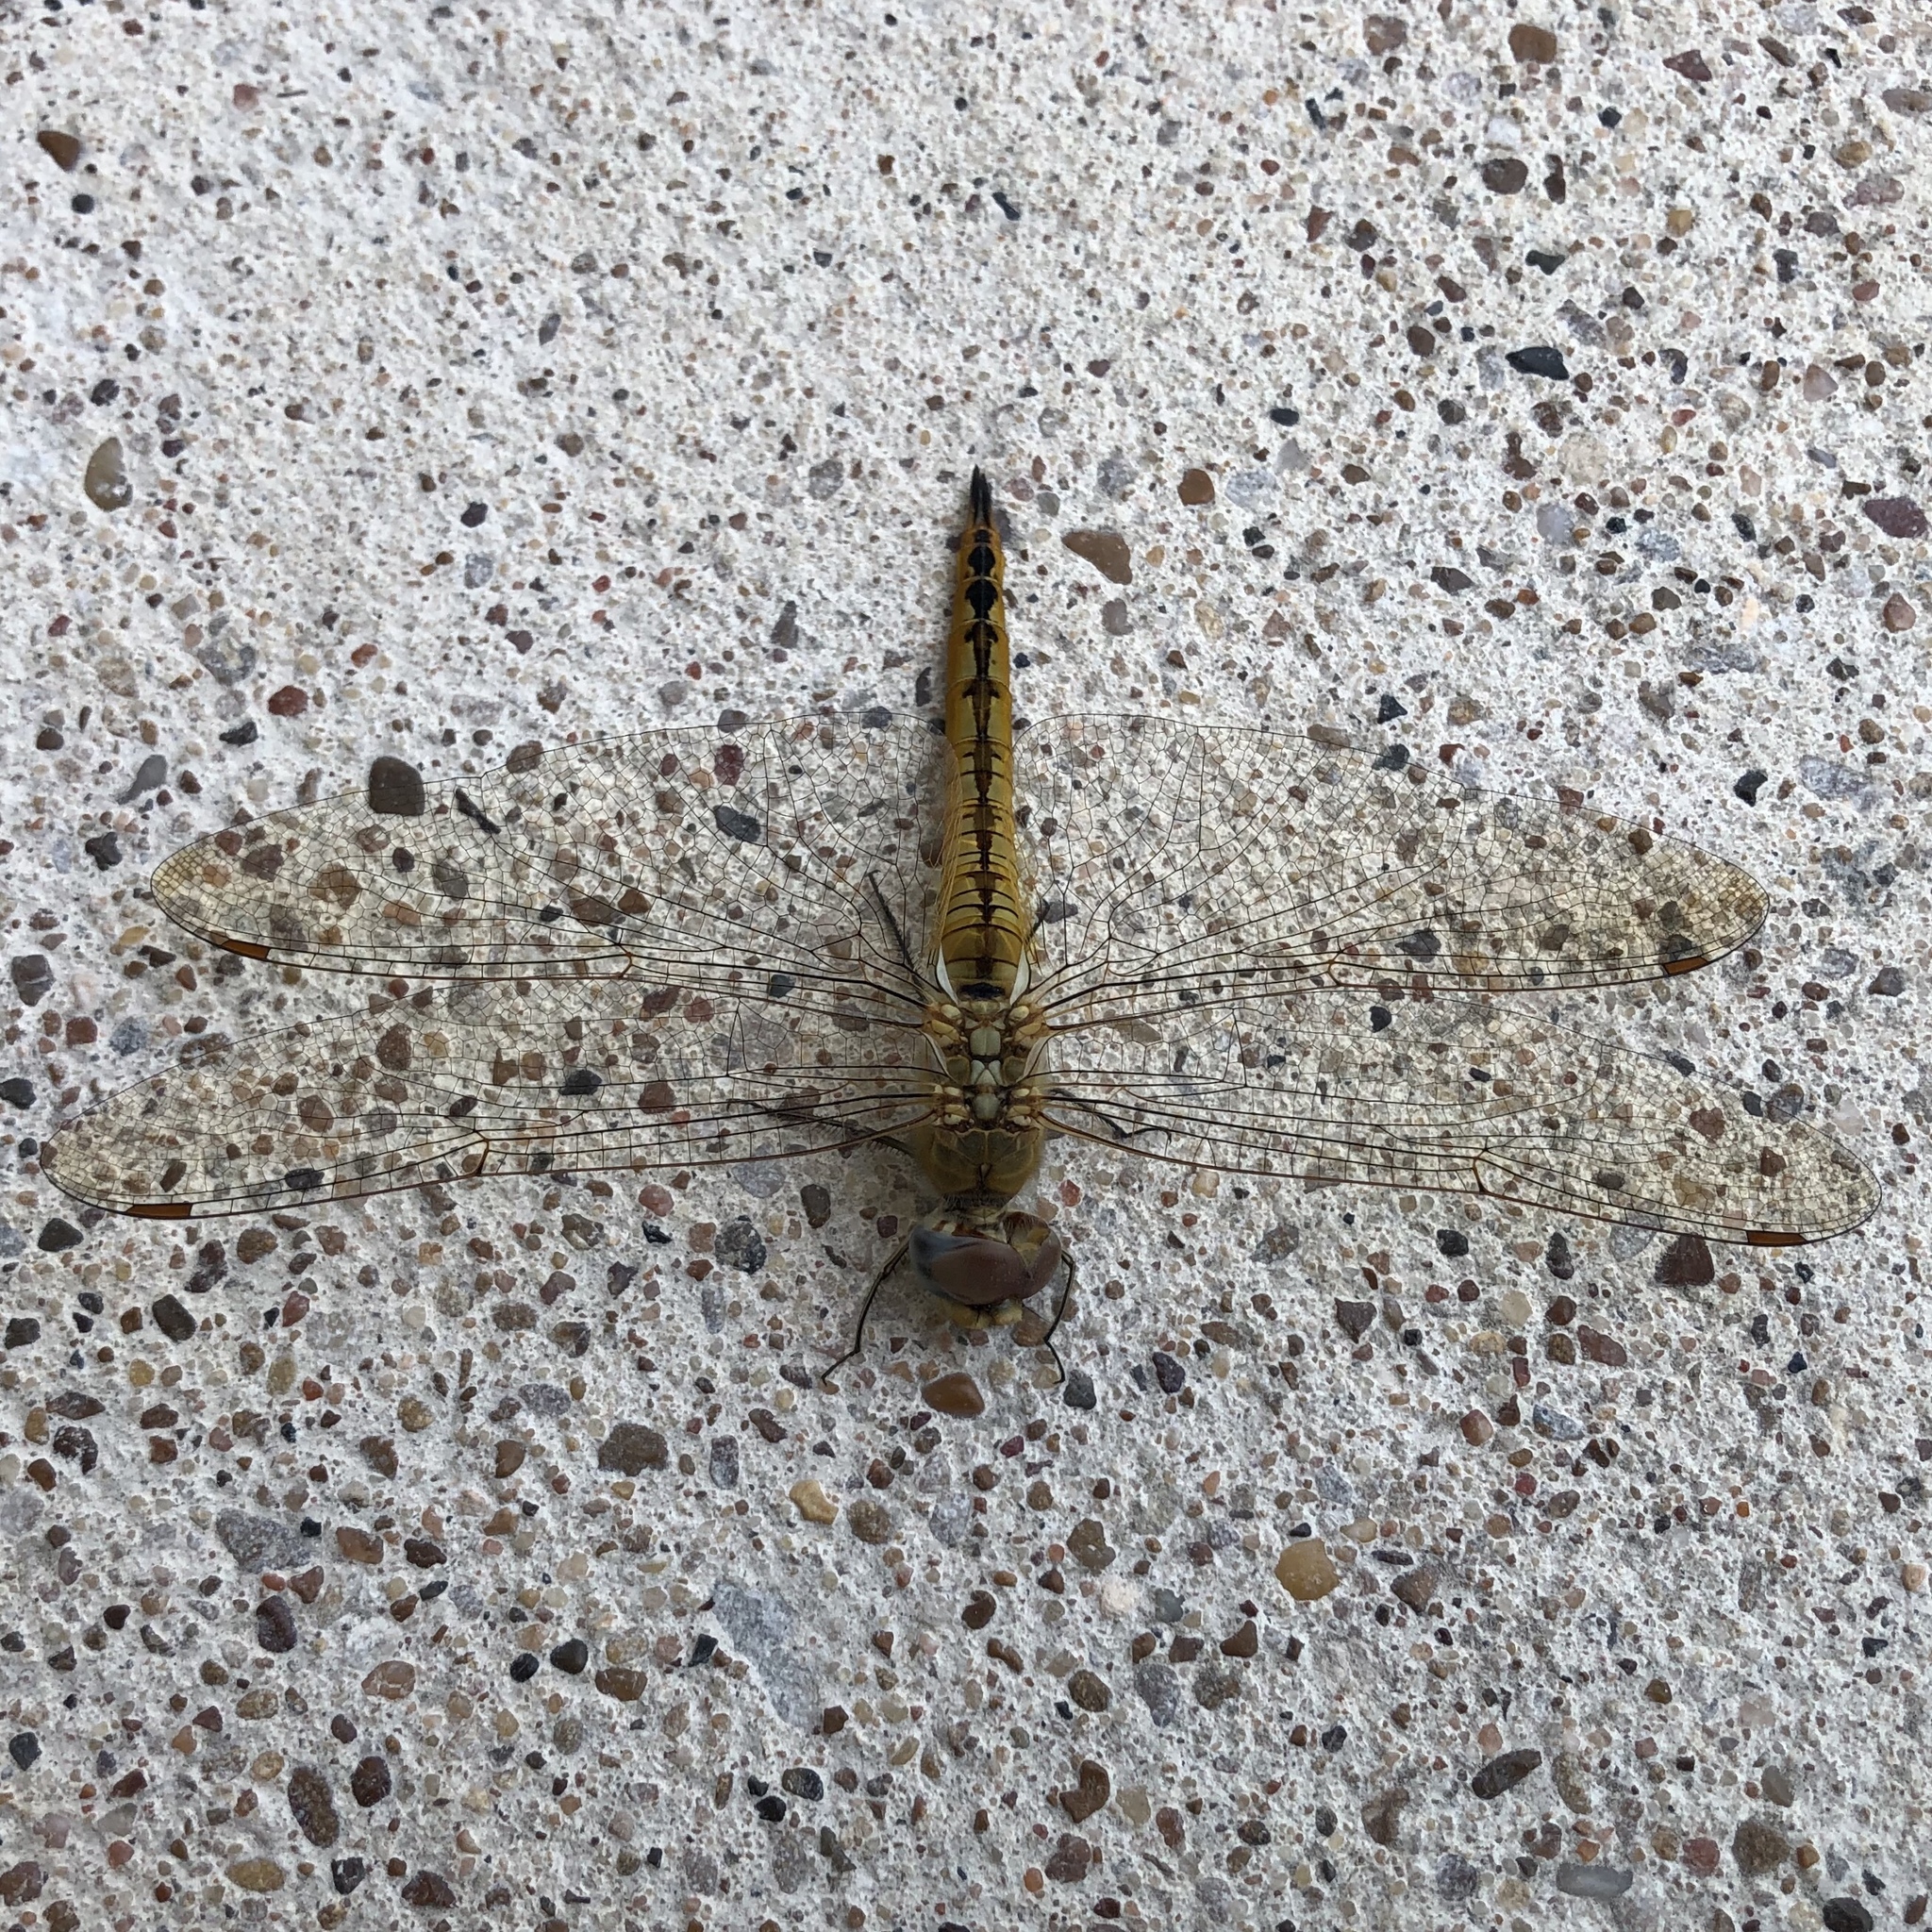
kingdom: Animalia
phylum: Arthropoda
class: Insecta
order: Odonata
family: Libellulidae
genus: Pantala
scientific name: Pantala flavescens
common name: Wandering glider
